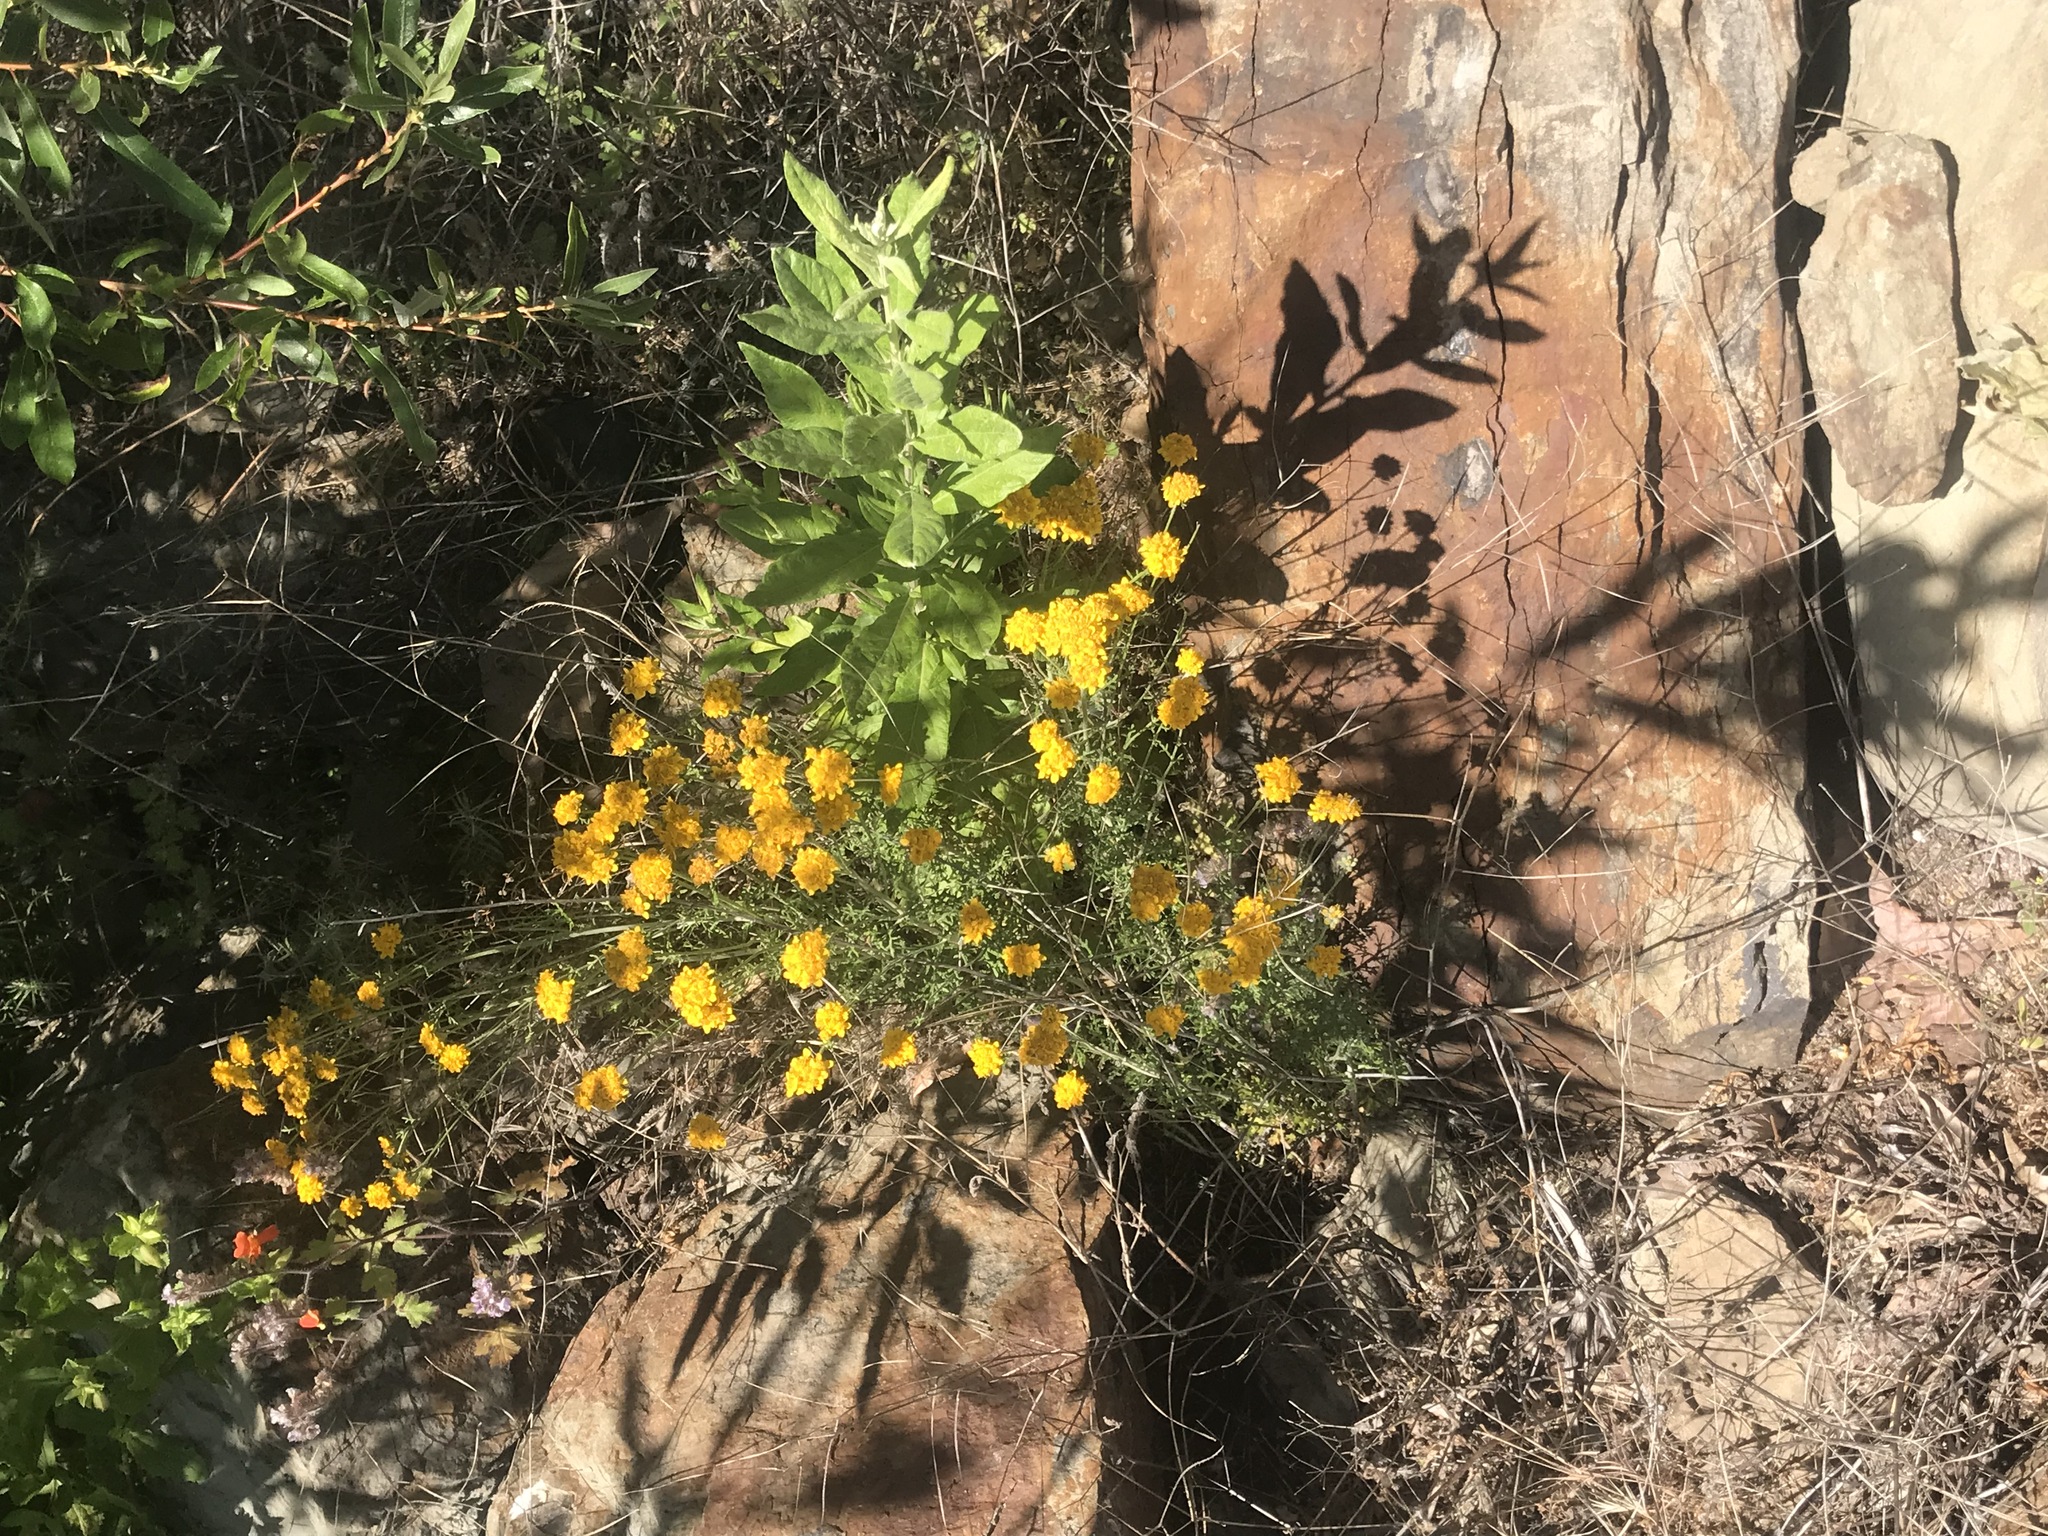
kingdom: Plantae
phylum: Tracheophyta
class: Magnoliopsida
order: Asterales
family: Asteraceae
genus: Eriophyllum
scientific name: Eriophyllum confertiflorum
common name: Golden-yarrow
